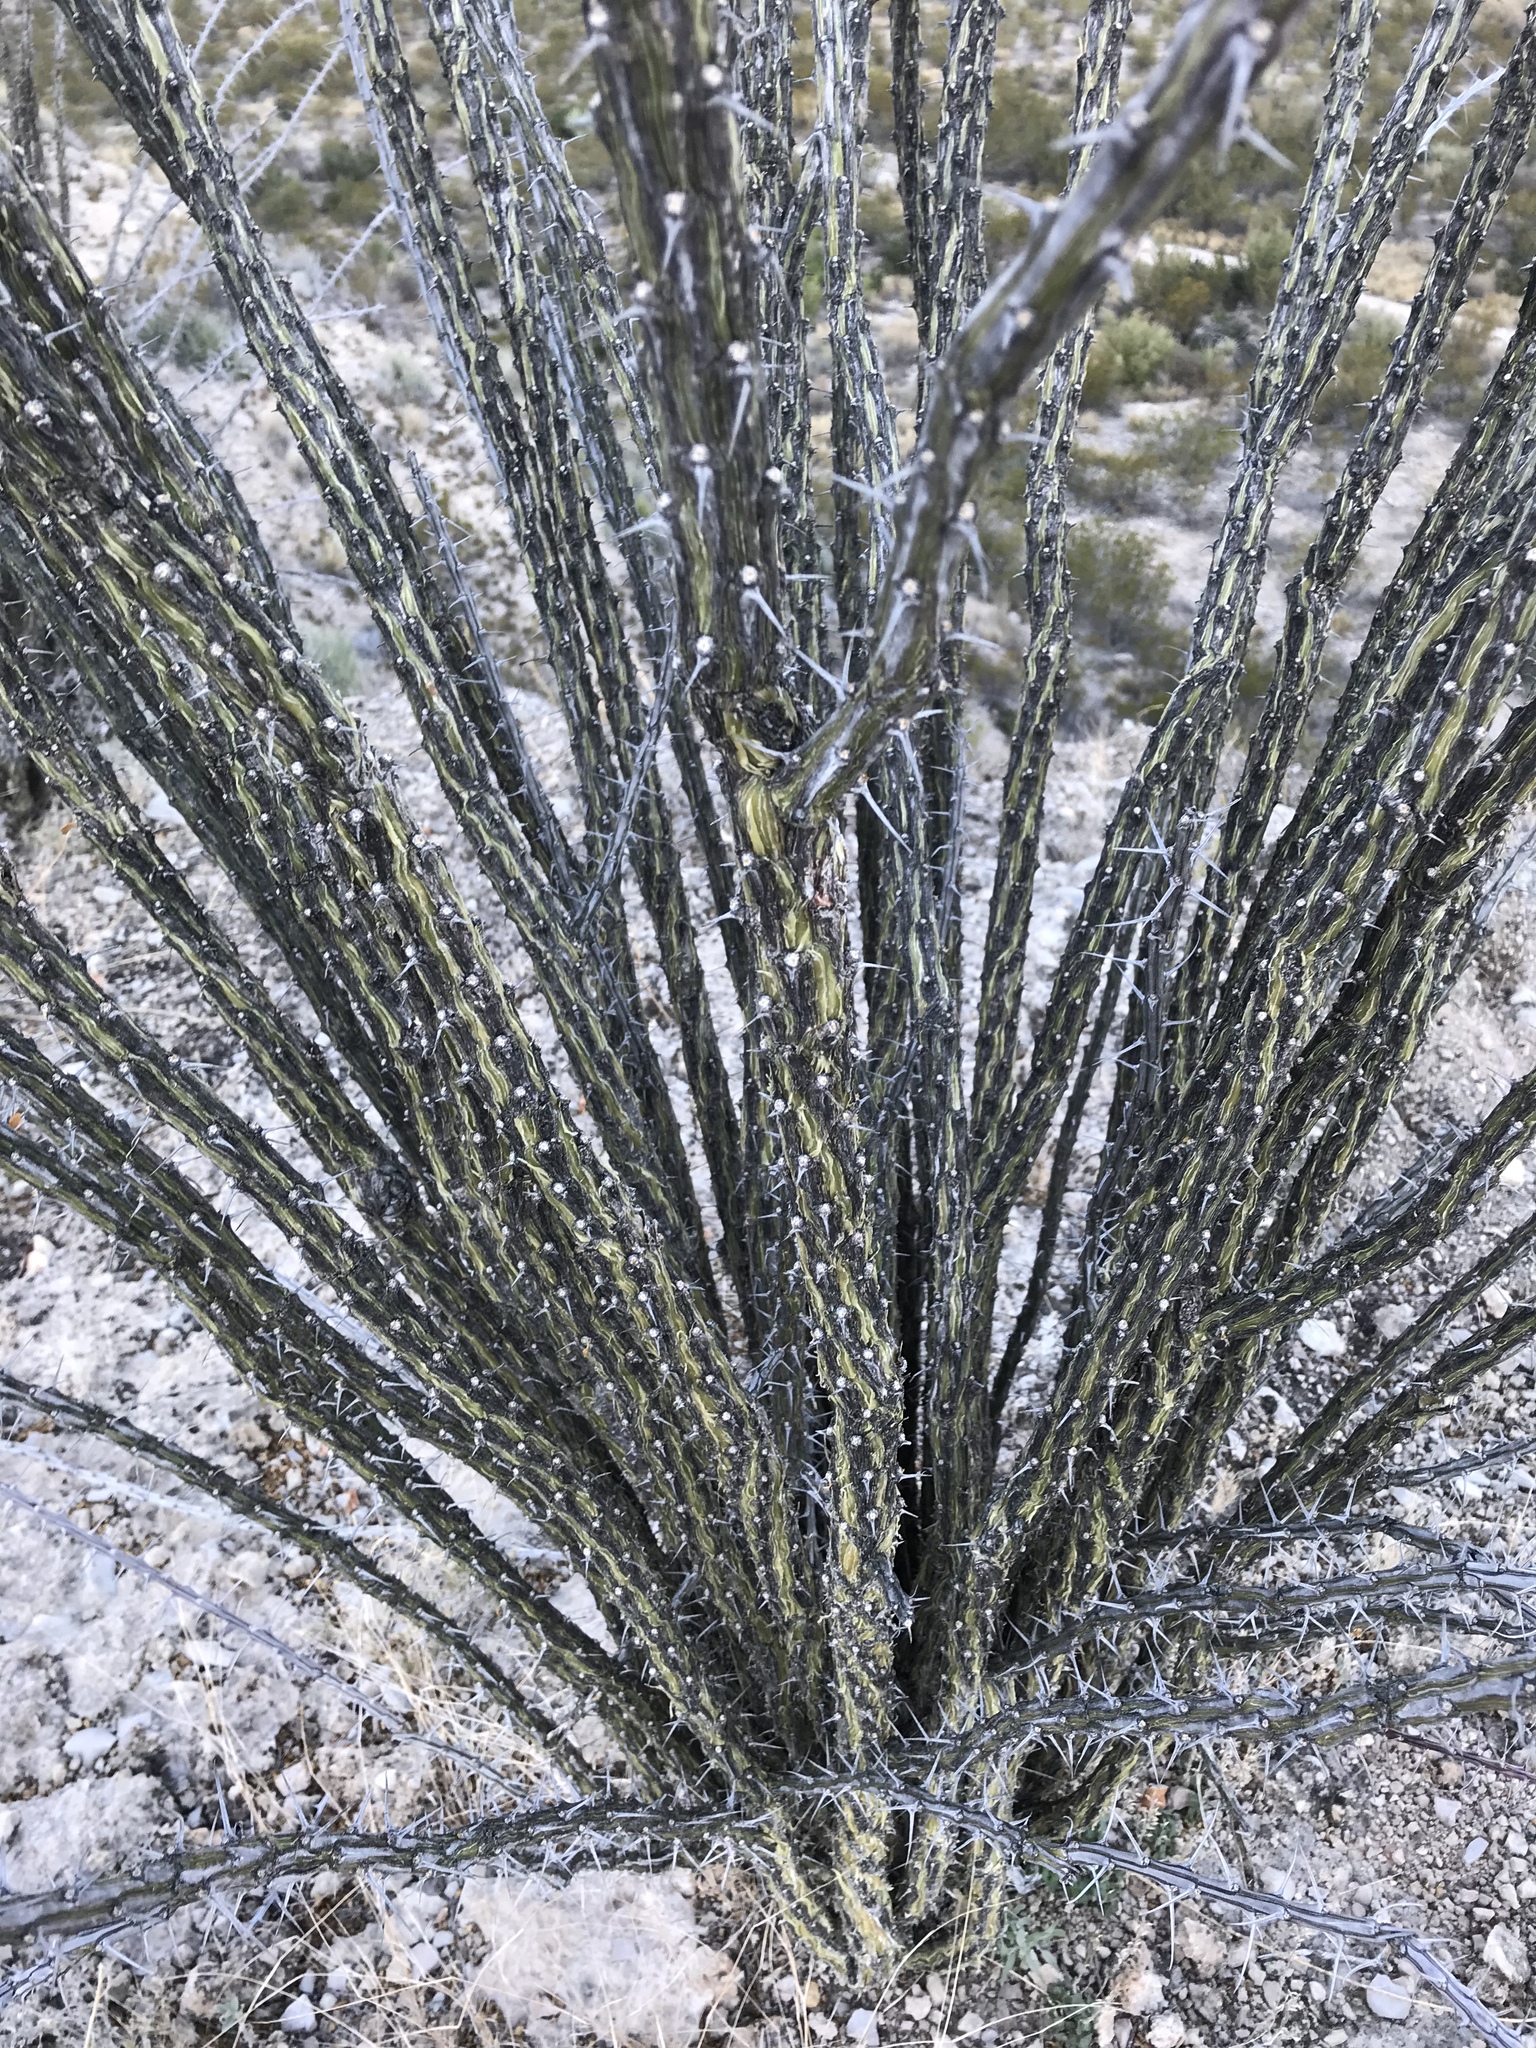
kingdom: Plantae
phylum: Tracheophyta
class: Magnoliopsida
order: Ericales
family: Fouquieriaceae
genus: Fouquieria
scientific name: Fouquieria splendens
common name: Vine-cactus
